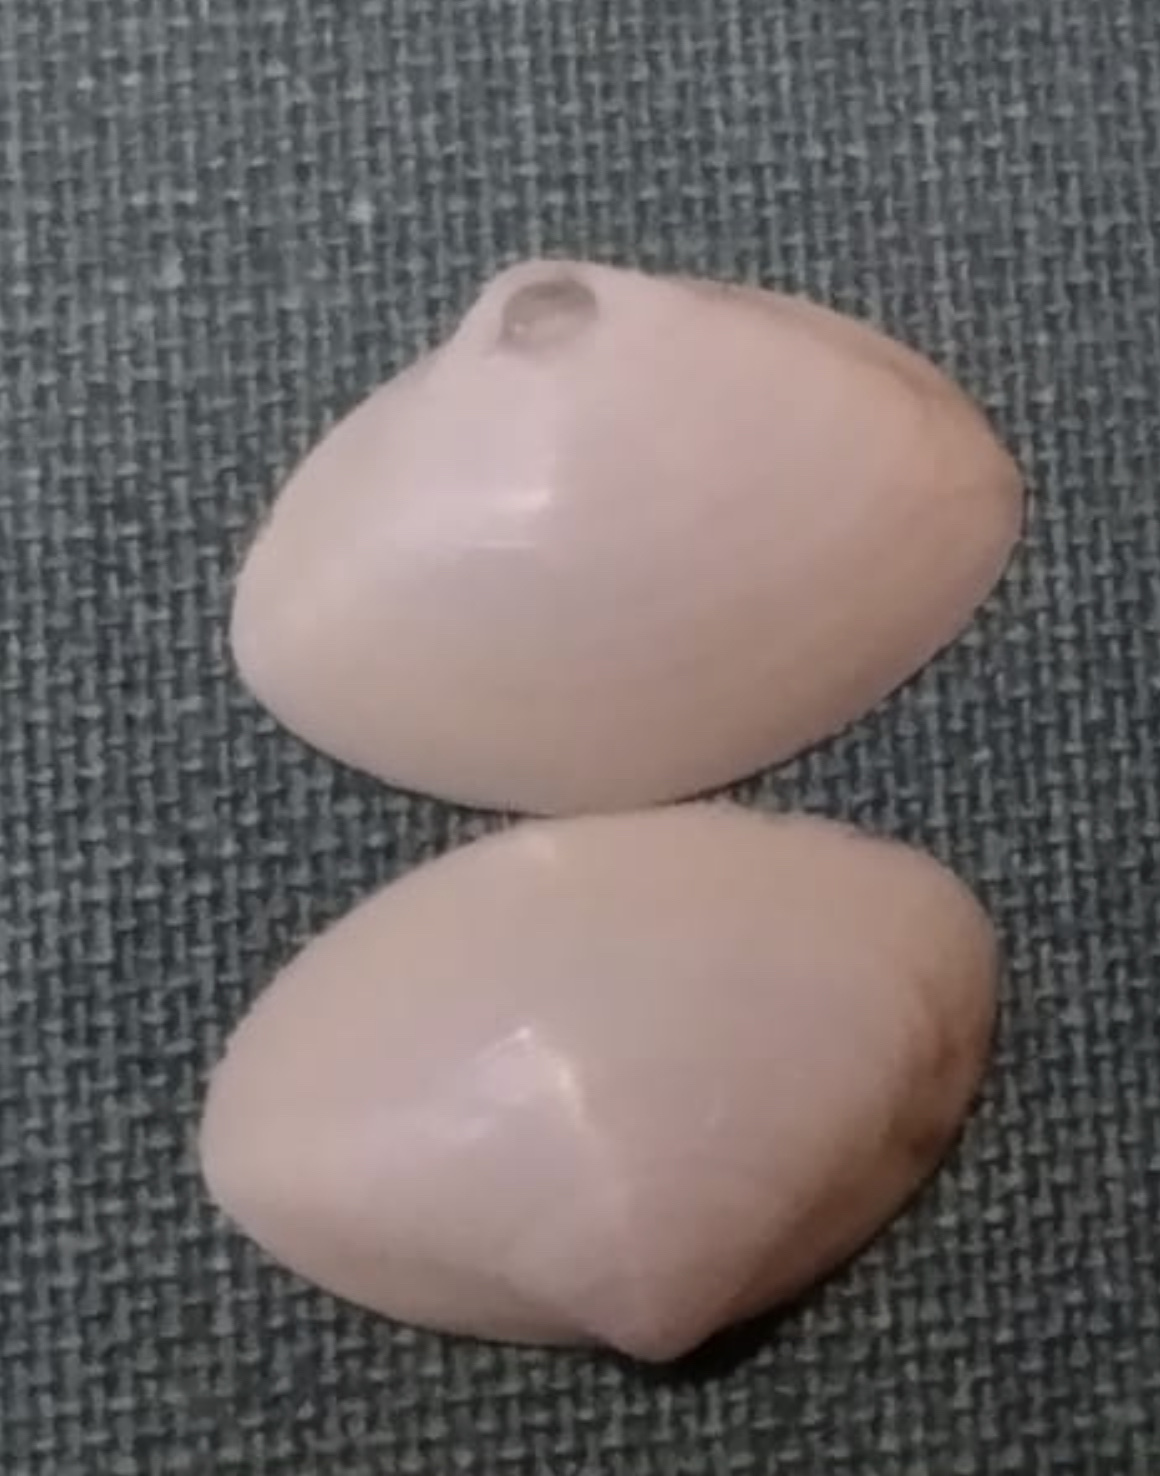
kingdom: Animalia
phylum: Mollusca
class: Bivalvia
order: Venerida
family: Mactridae
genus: Spisula
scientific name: Spisula solidissima
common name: Atlantic surf clam
